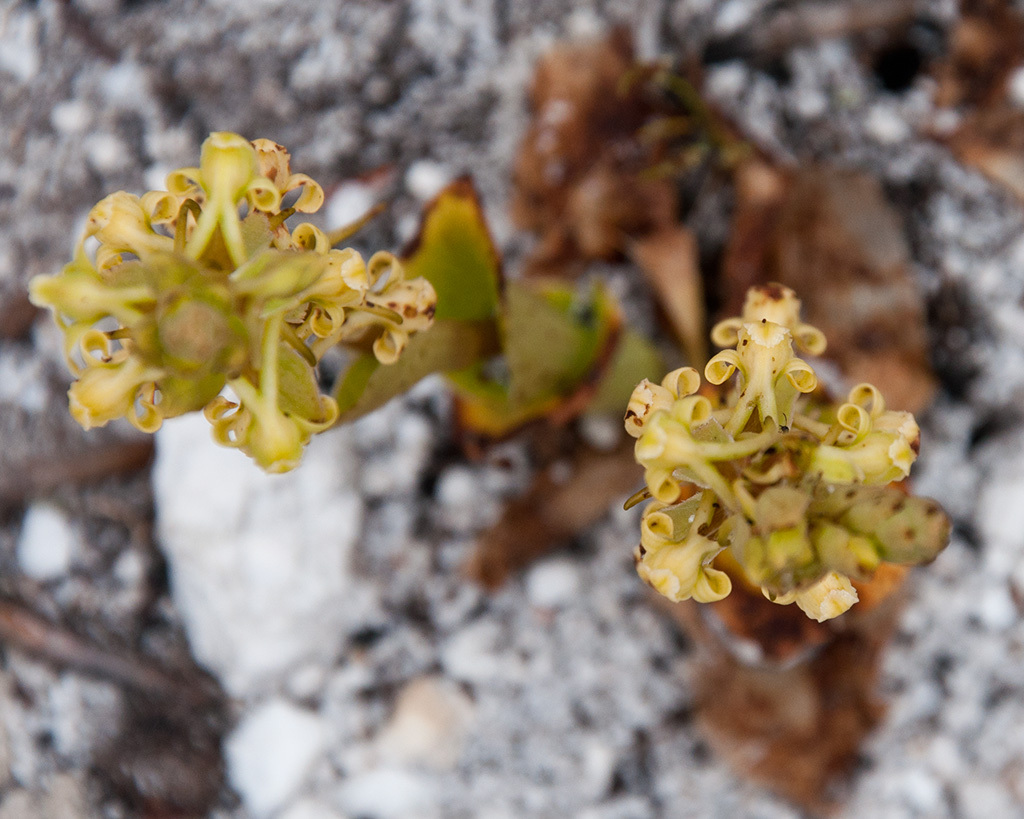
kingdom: Plantae
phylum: Tracheophyta
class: Liliopsida
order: Asparagales
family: Orchidaceae
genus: Satyrium
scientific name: Satyrium humile
